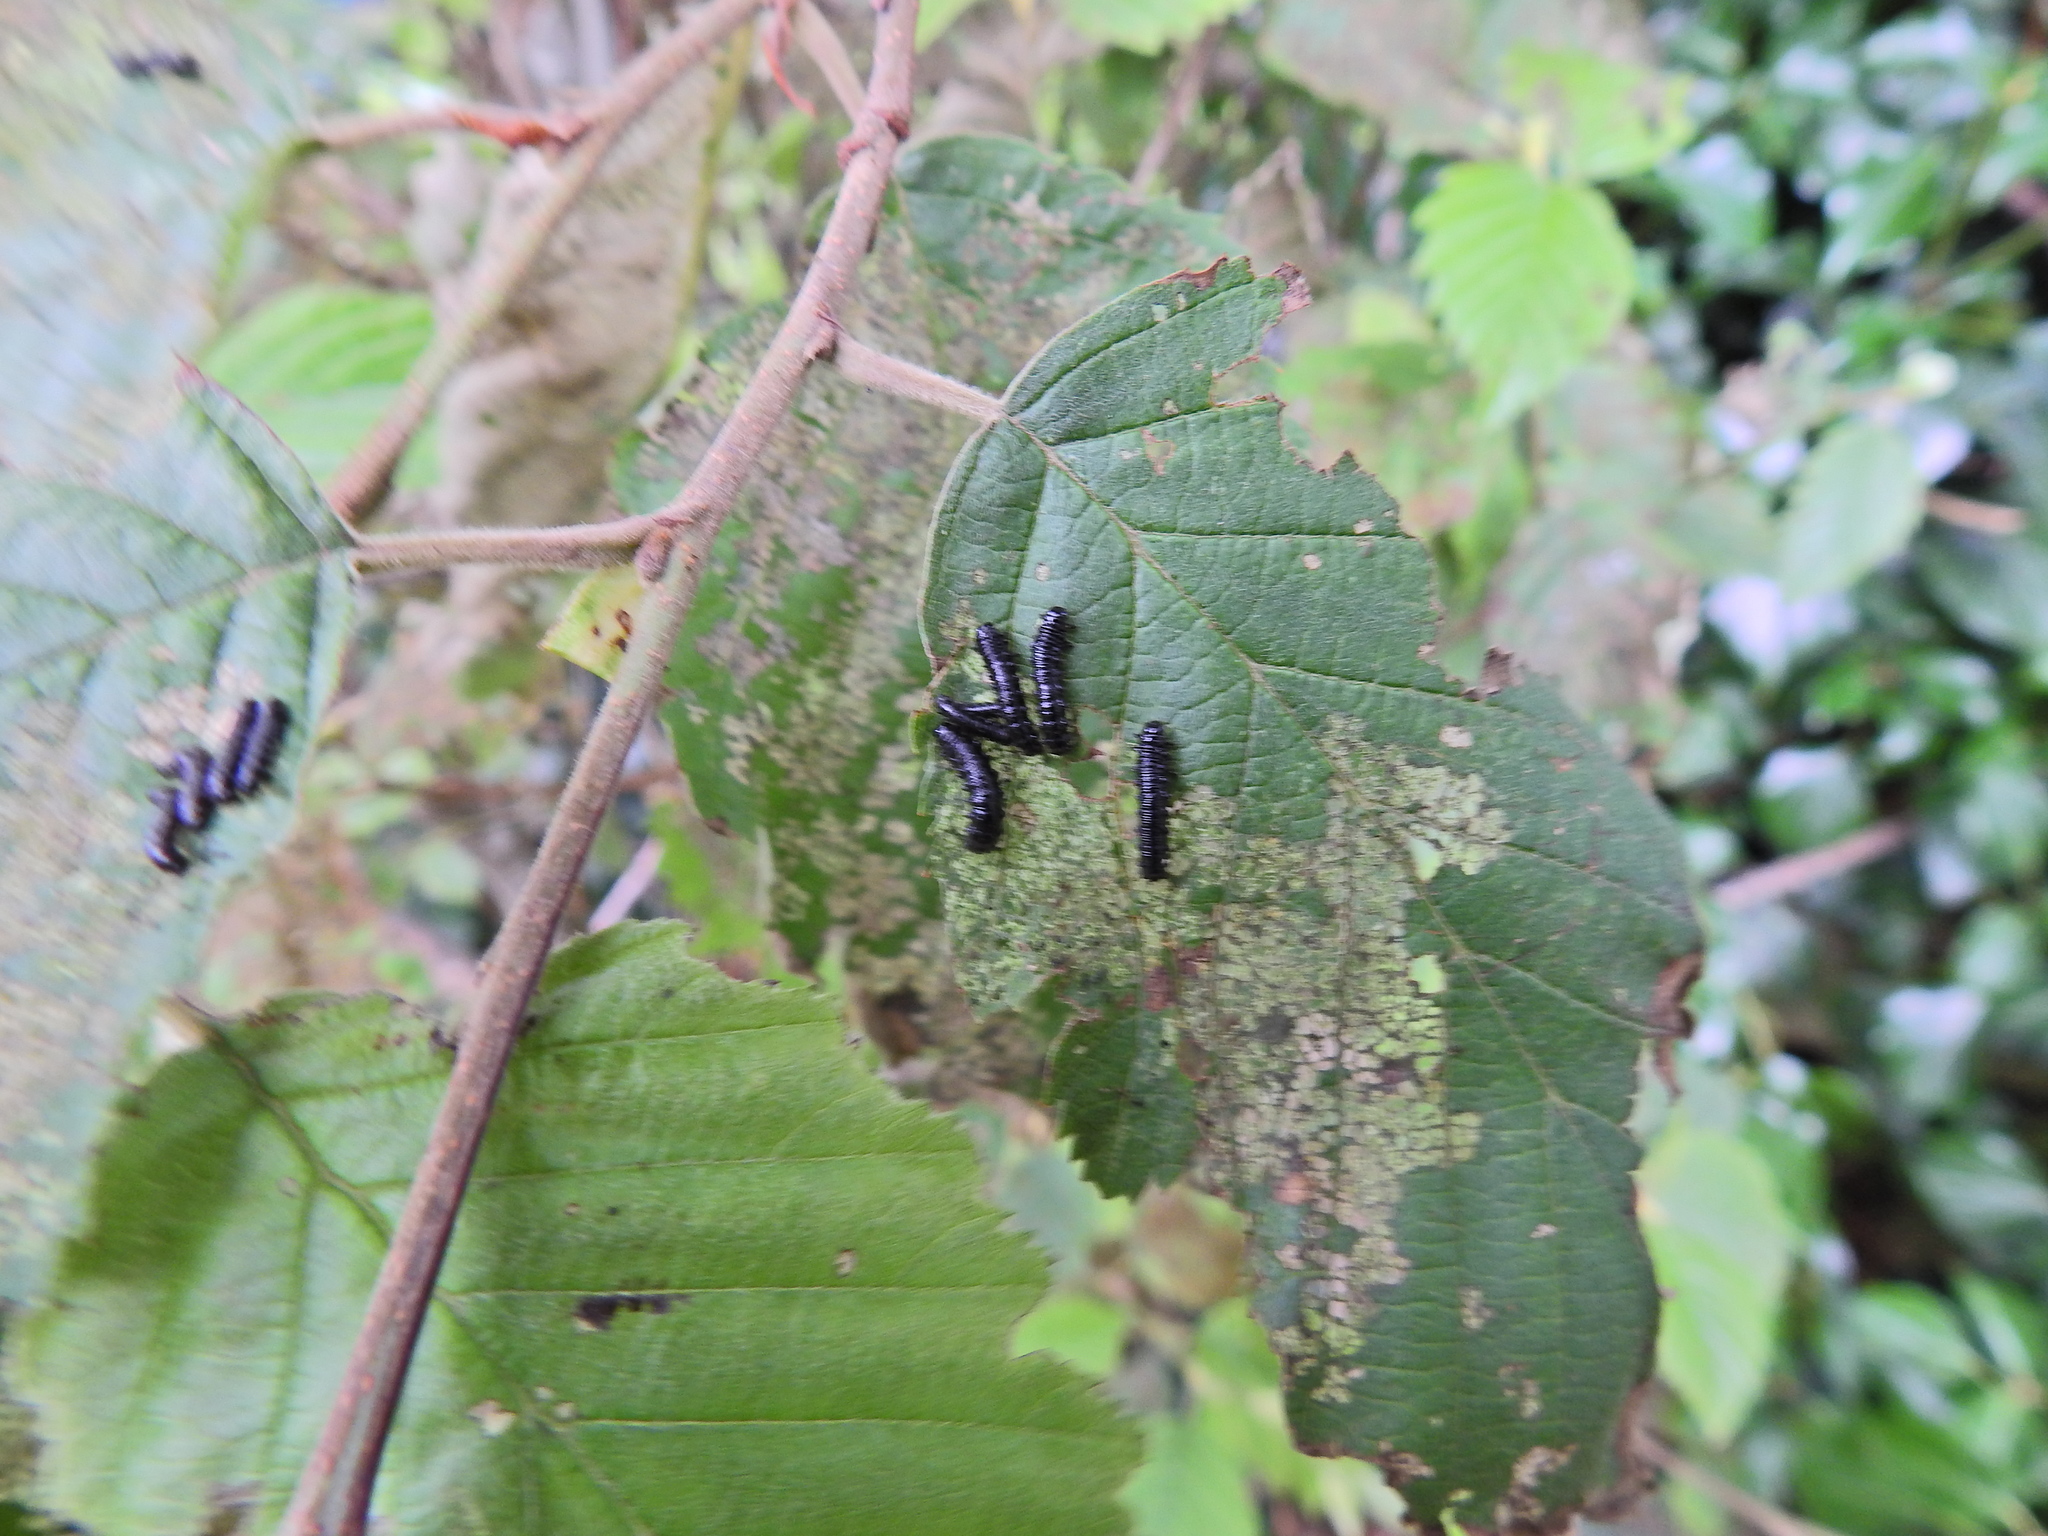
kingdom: Animalia
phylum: Arthropoda
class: Insecta
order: Coleoptera
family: Chrysomelidae
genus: Agelastica
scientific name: Agelastica alni
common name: Alder leaf beetle
